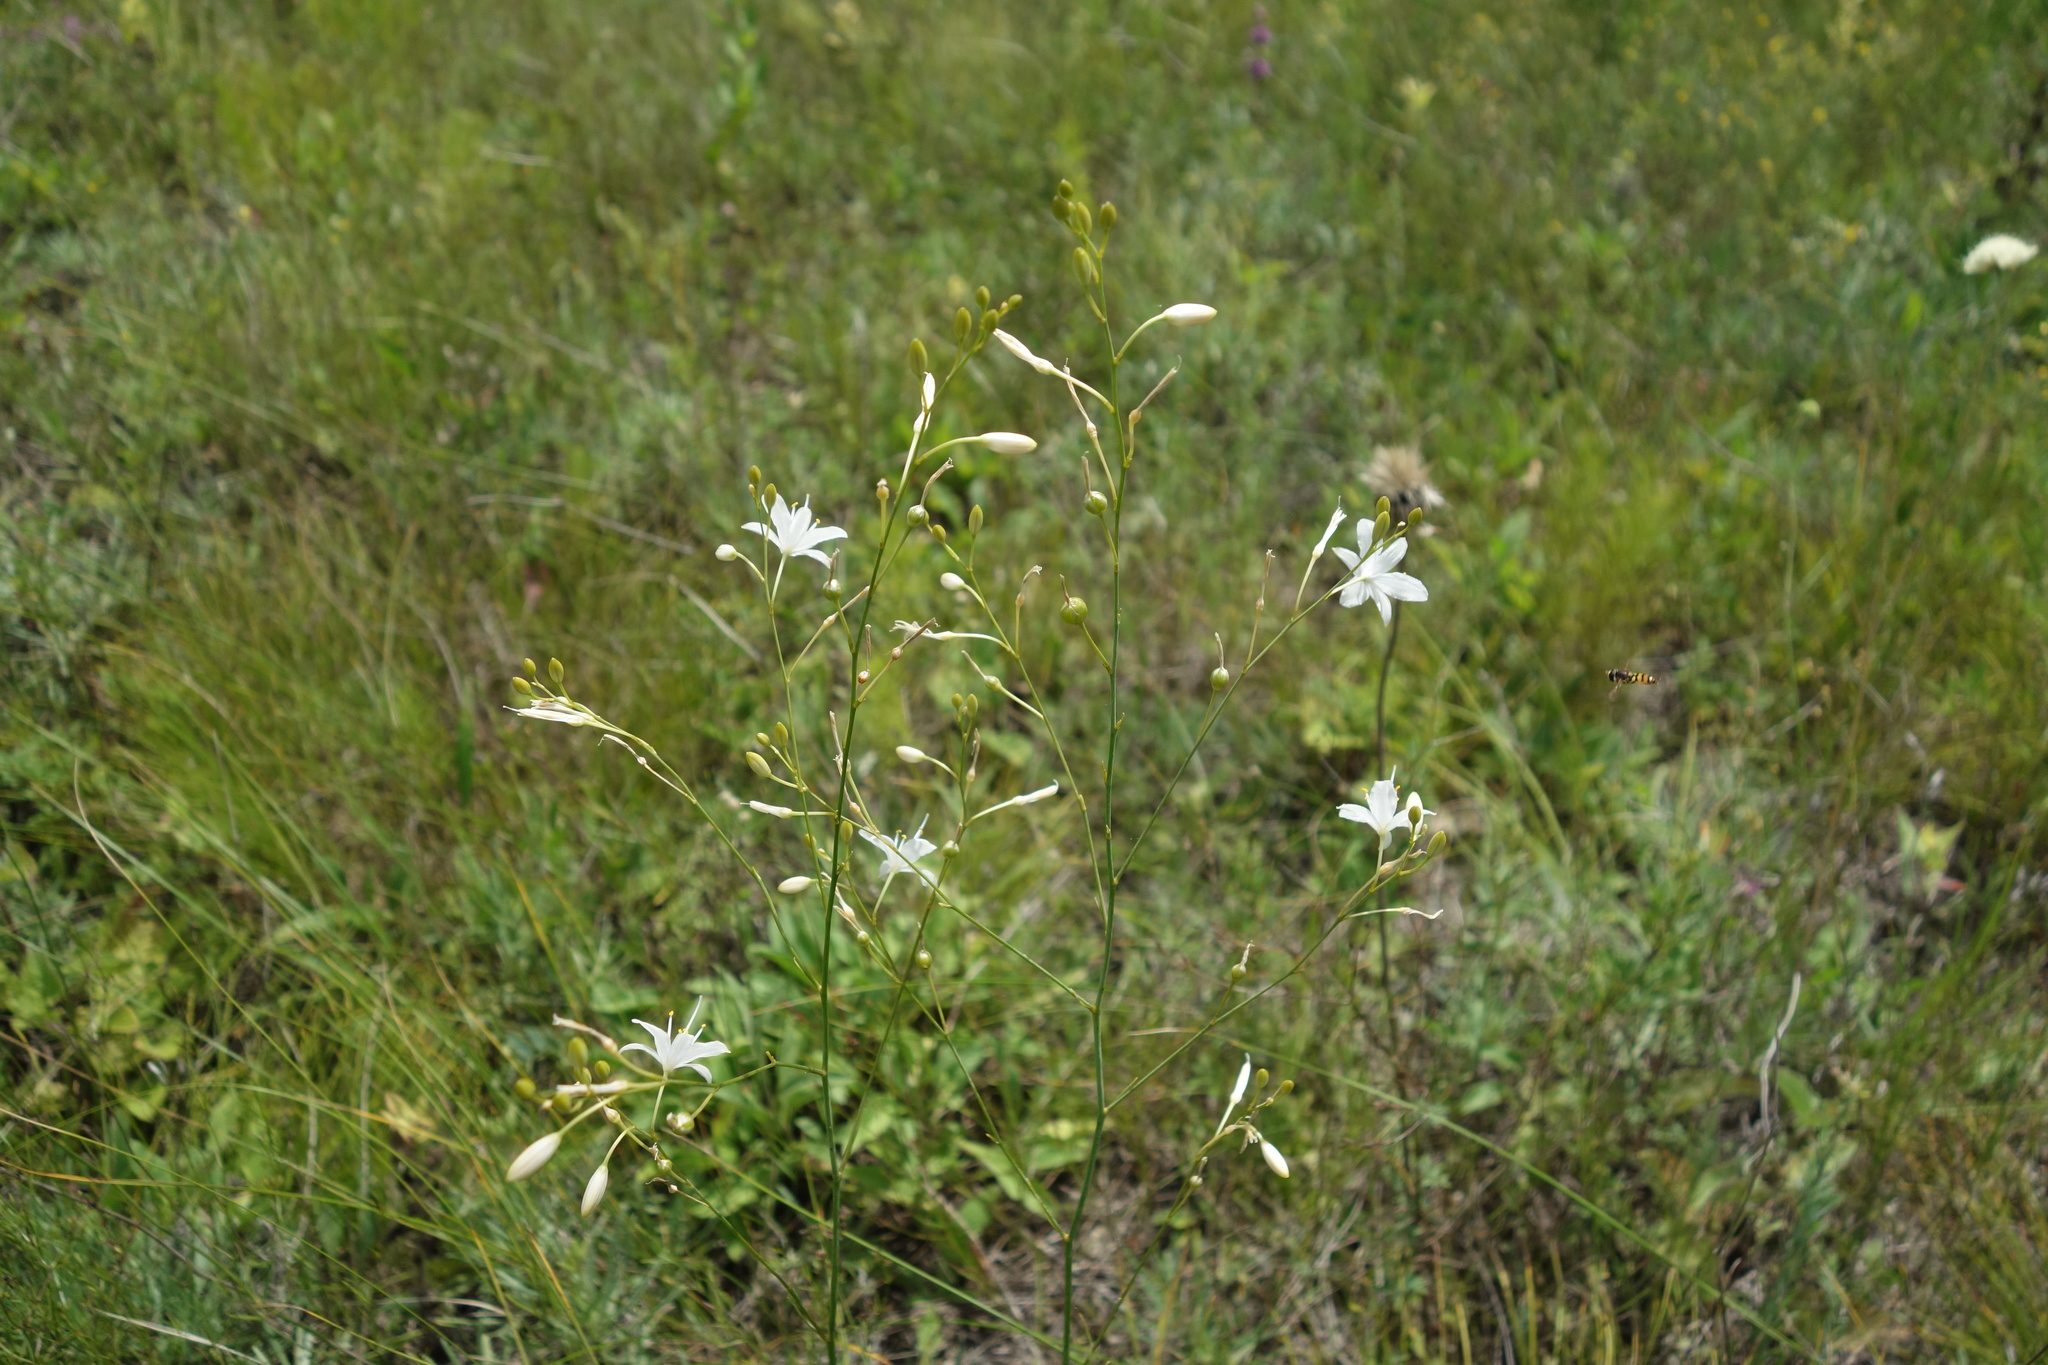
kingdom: Plantae
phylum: Tracheophyta
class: Liliopsida
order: Asparagales
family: Asparagaceae
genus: Anthericum
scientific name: Anthericum ramosum
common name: Branched st. bernard's-lily
